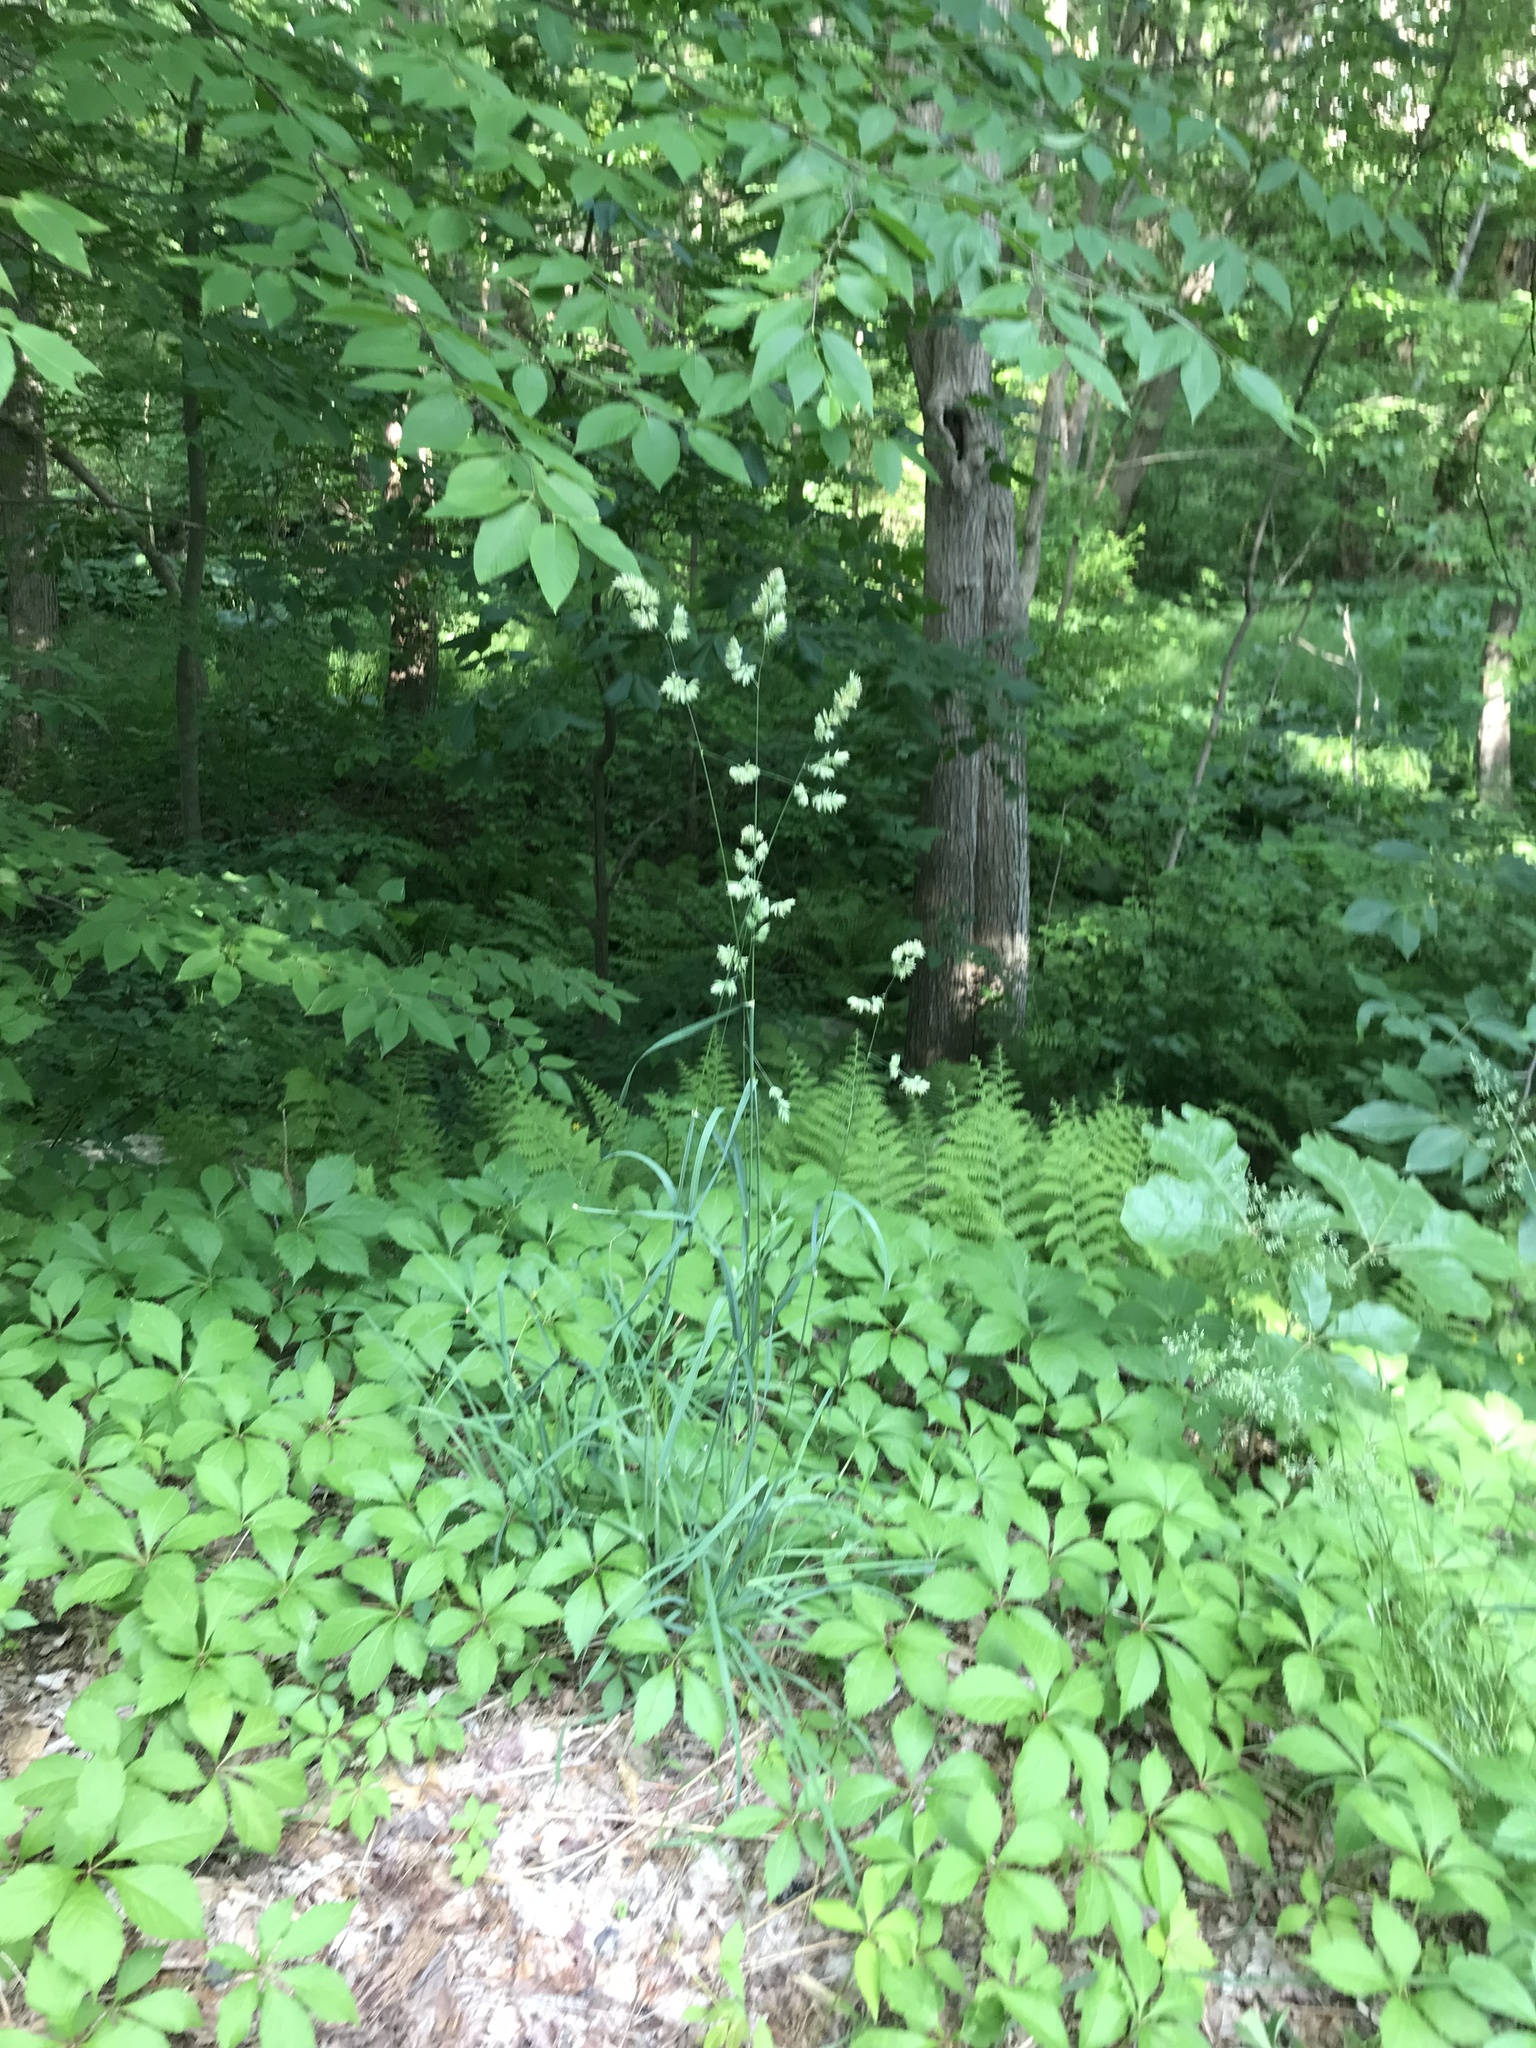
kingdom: Plantae
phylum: Tracheophyta
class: Liliopsida
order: Poales
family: Poaceae
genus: Dactylis
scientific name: Dactylis glomerata
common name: Orchardgrass
